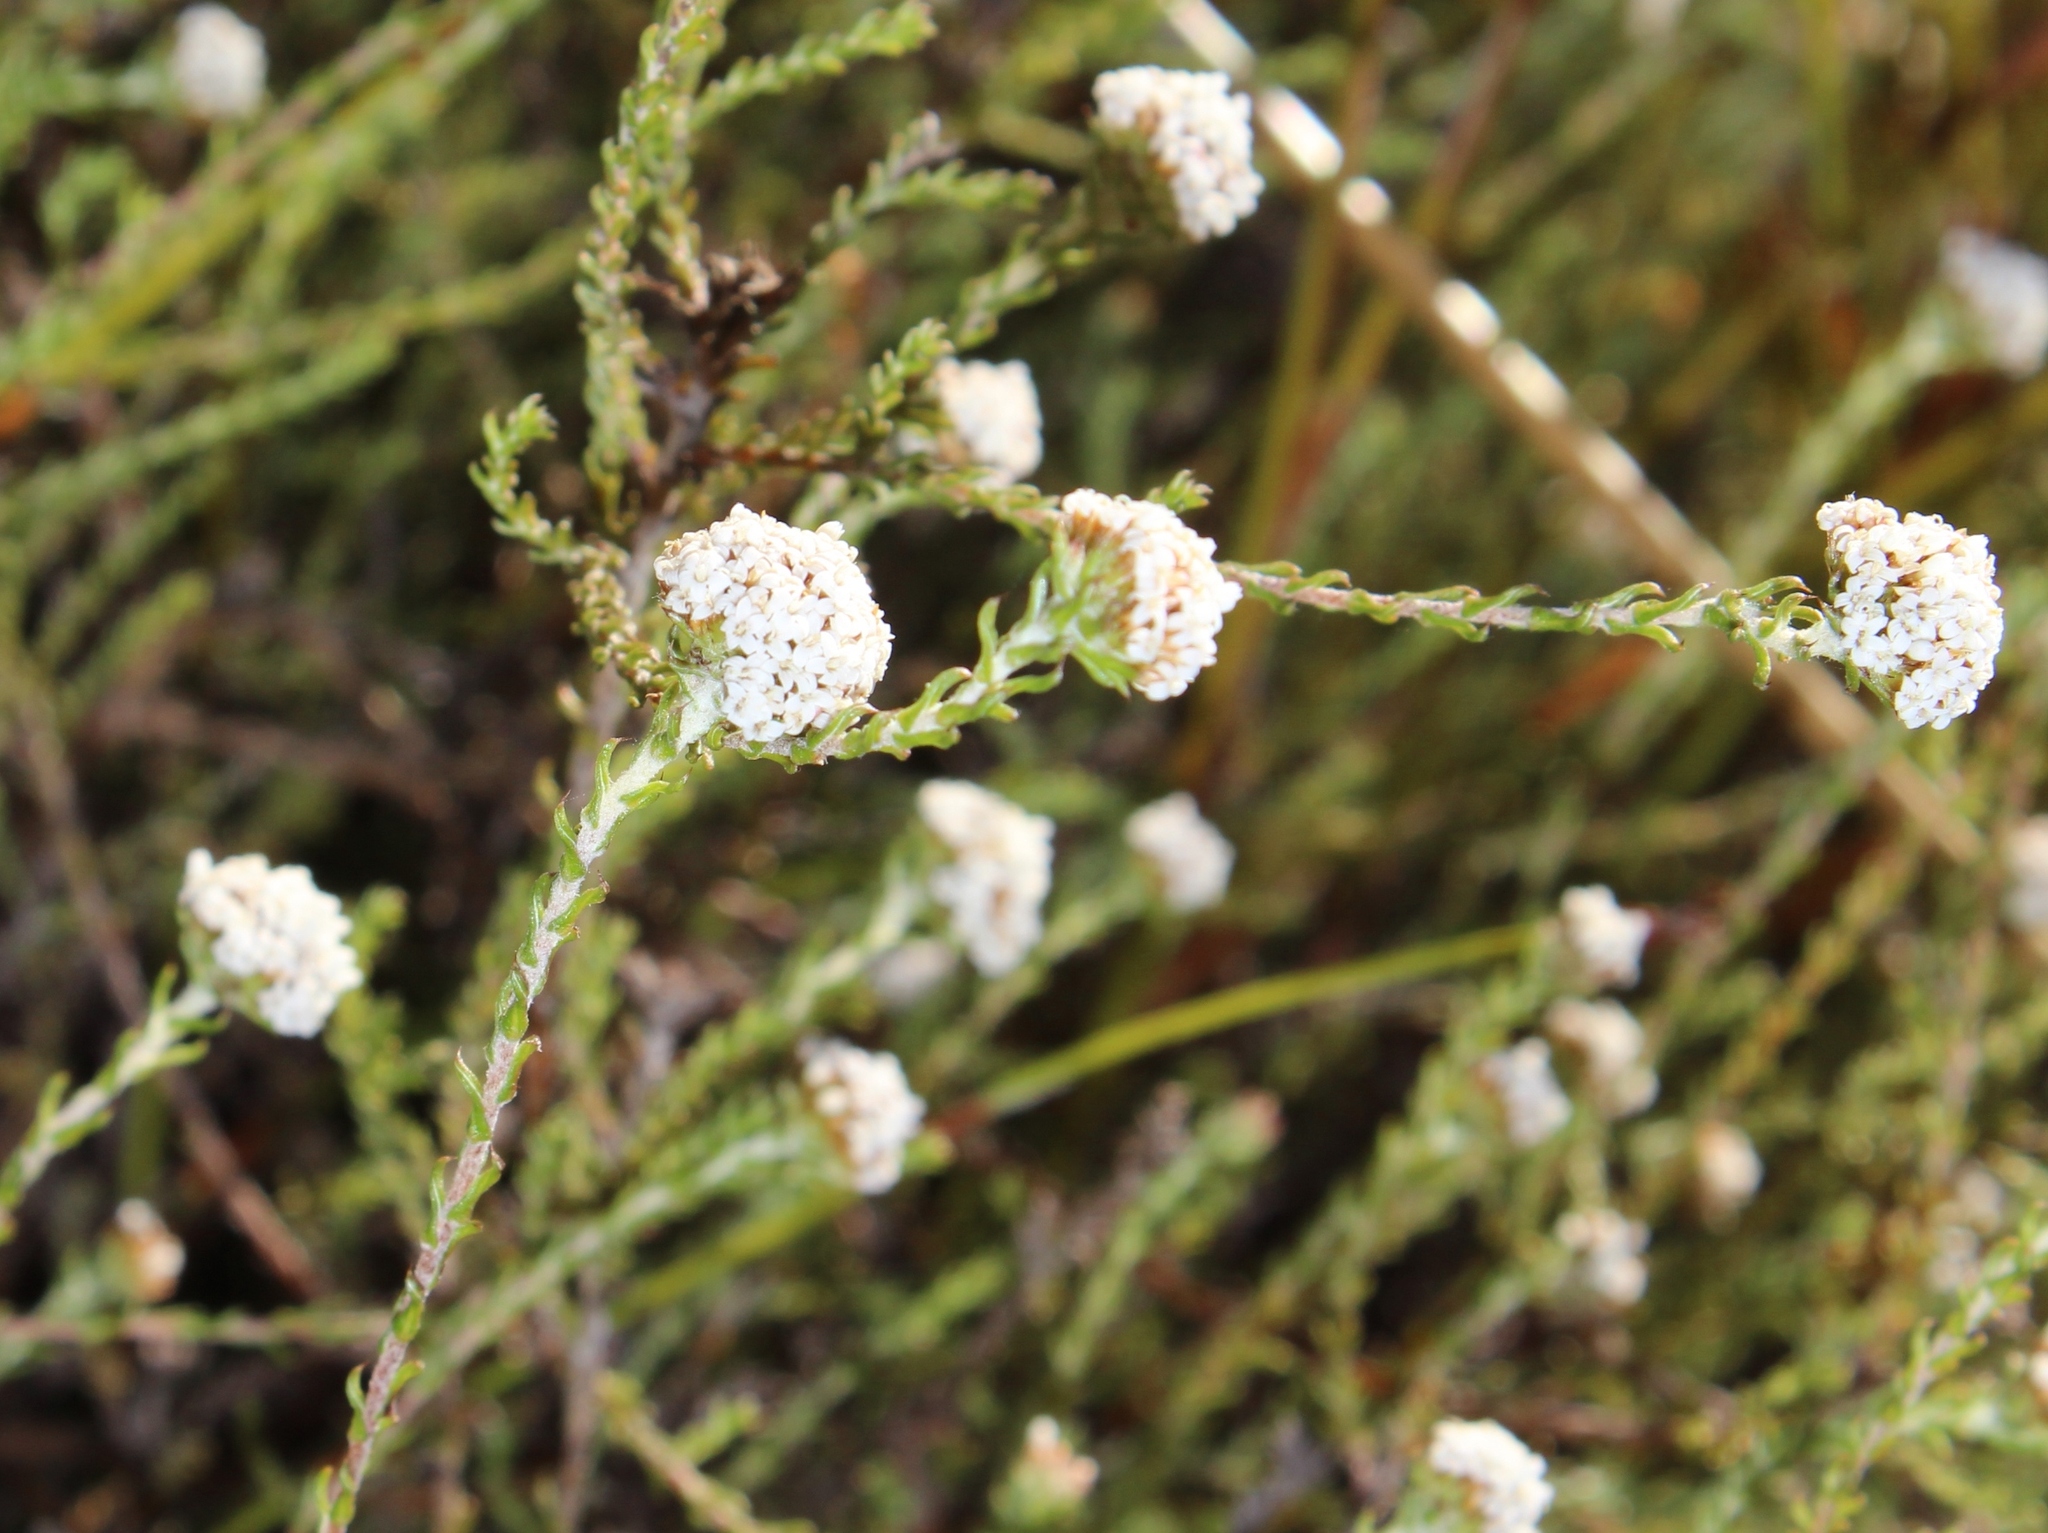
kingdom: Plantae
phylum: Tracheophyta
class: Magnoliopsida
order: Asterales
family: Asteraceae
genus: Stoebe
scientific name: Stoebe capitata
